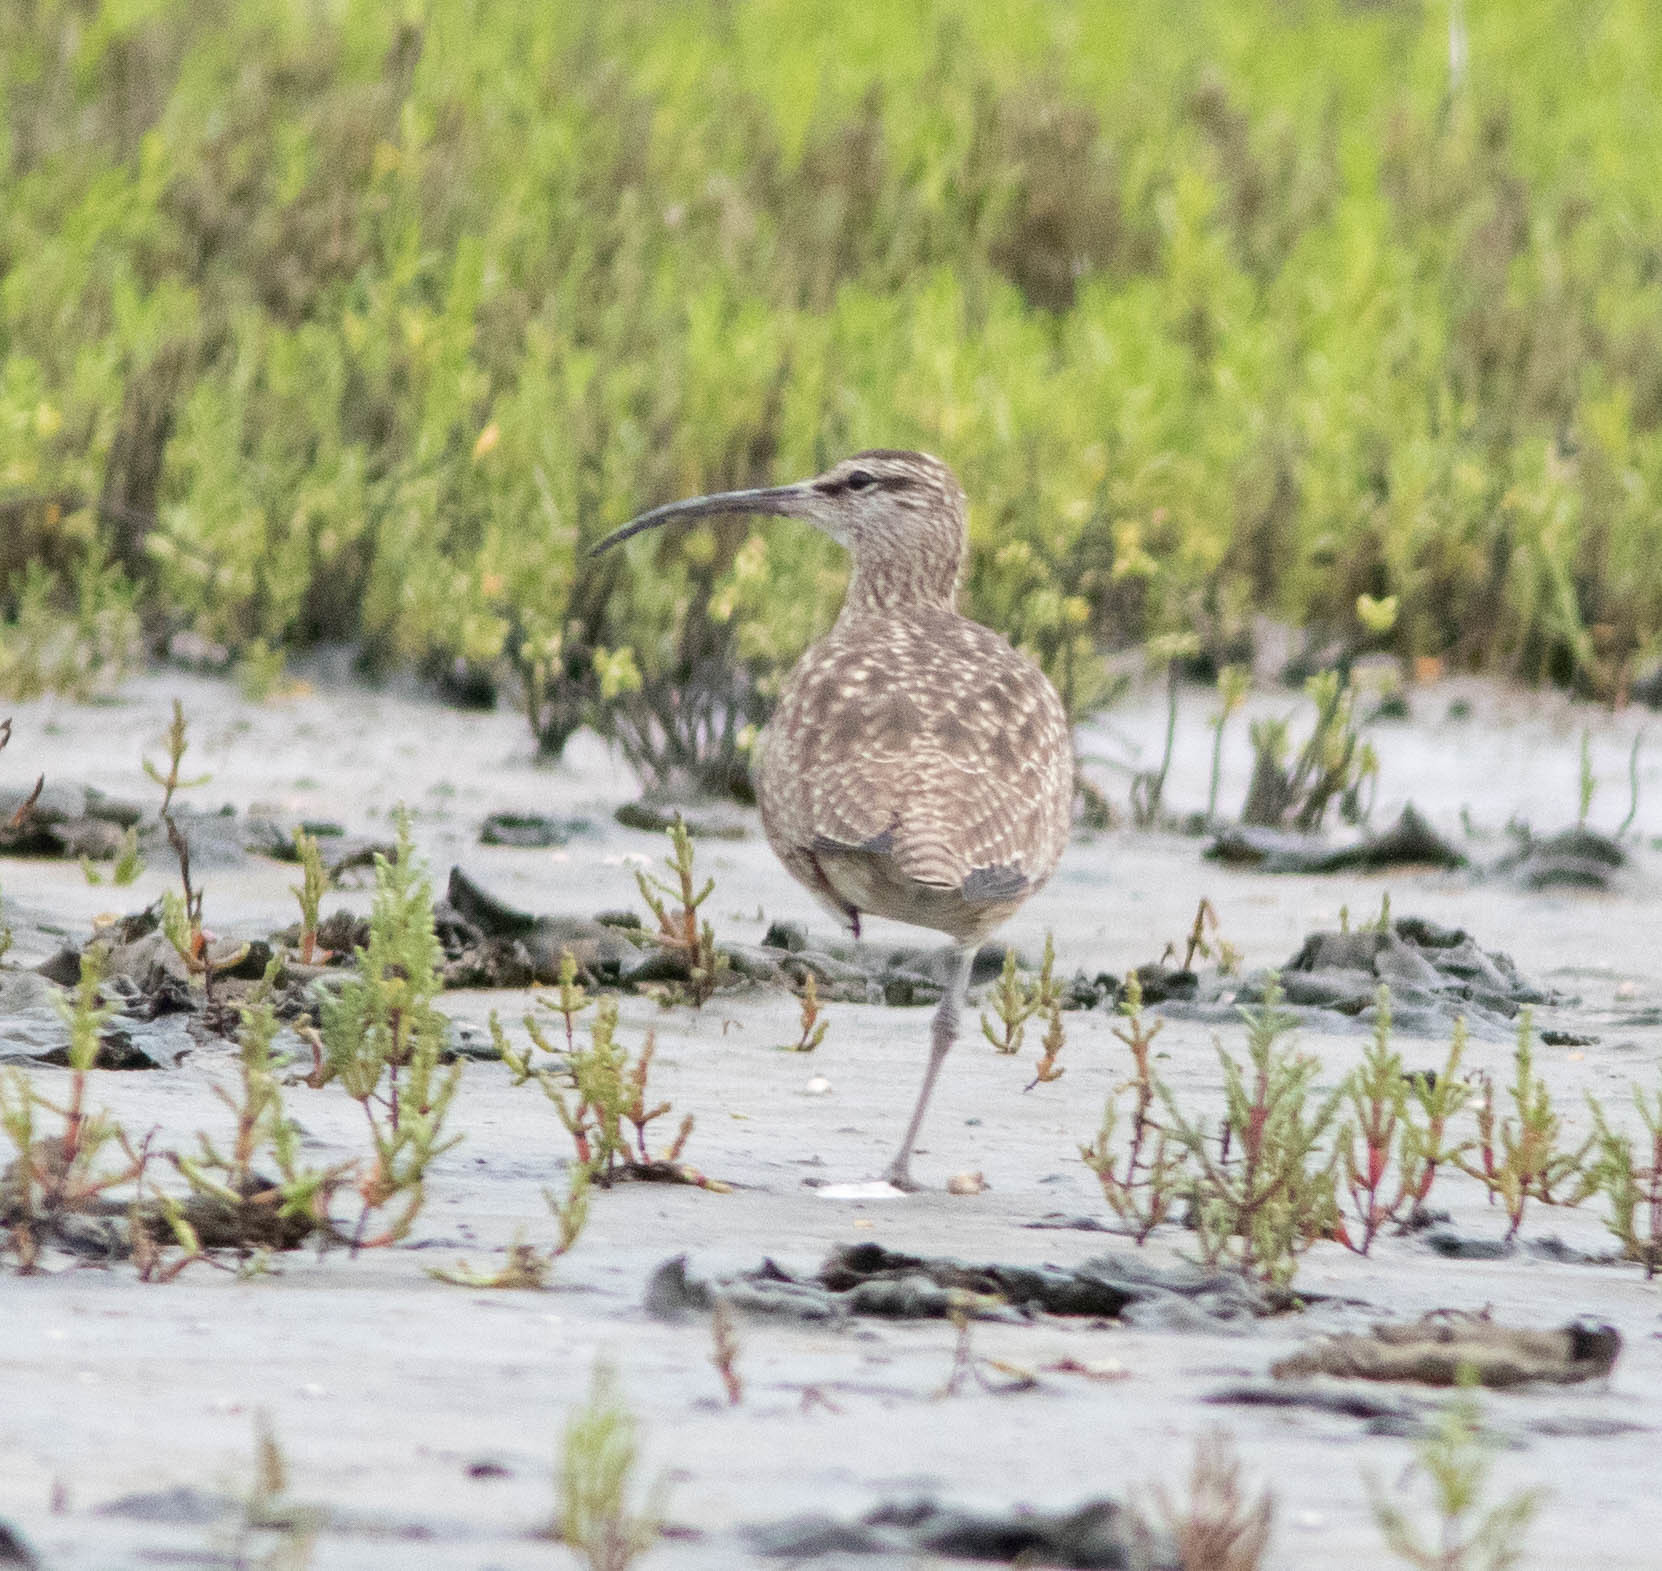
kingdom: Animalia
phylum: Chordata
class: Aves
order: Charadriiformes
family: Scolopacidae
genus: Numenius
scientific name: Numenius phaeopus
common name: Whimbrel
